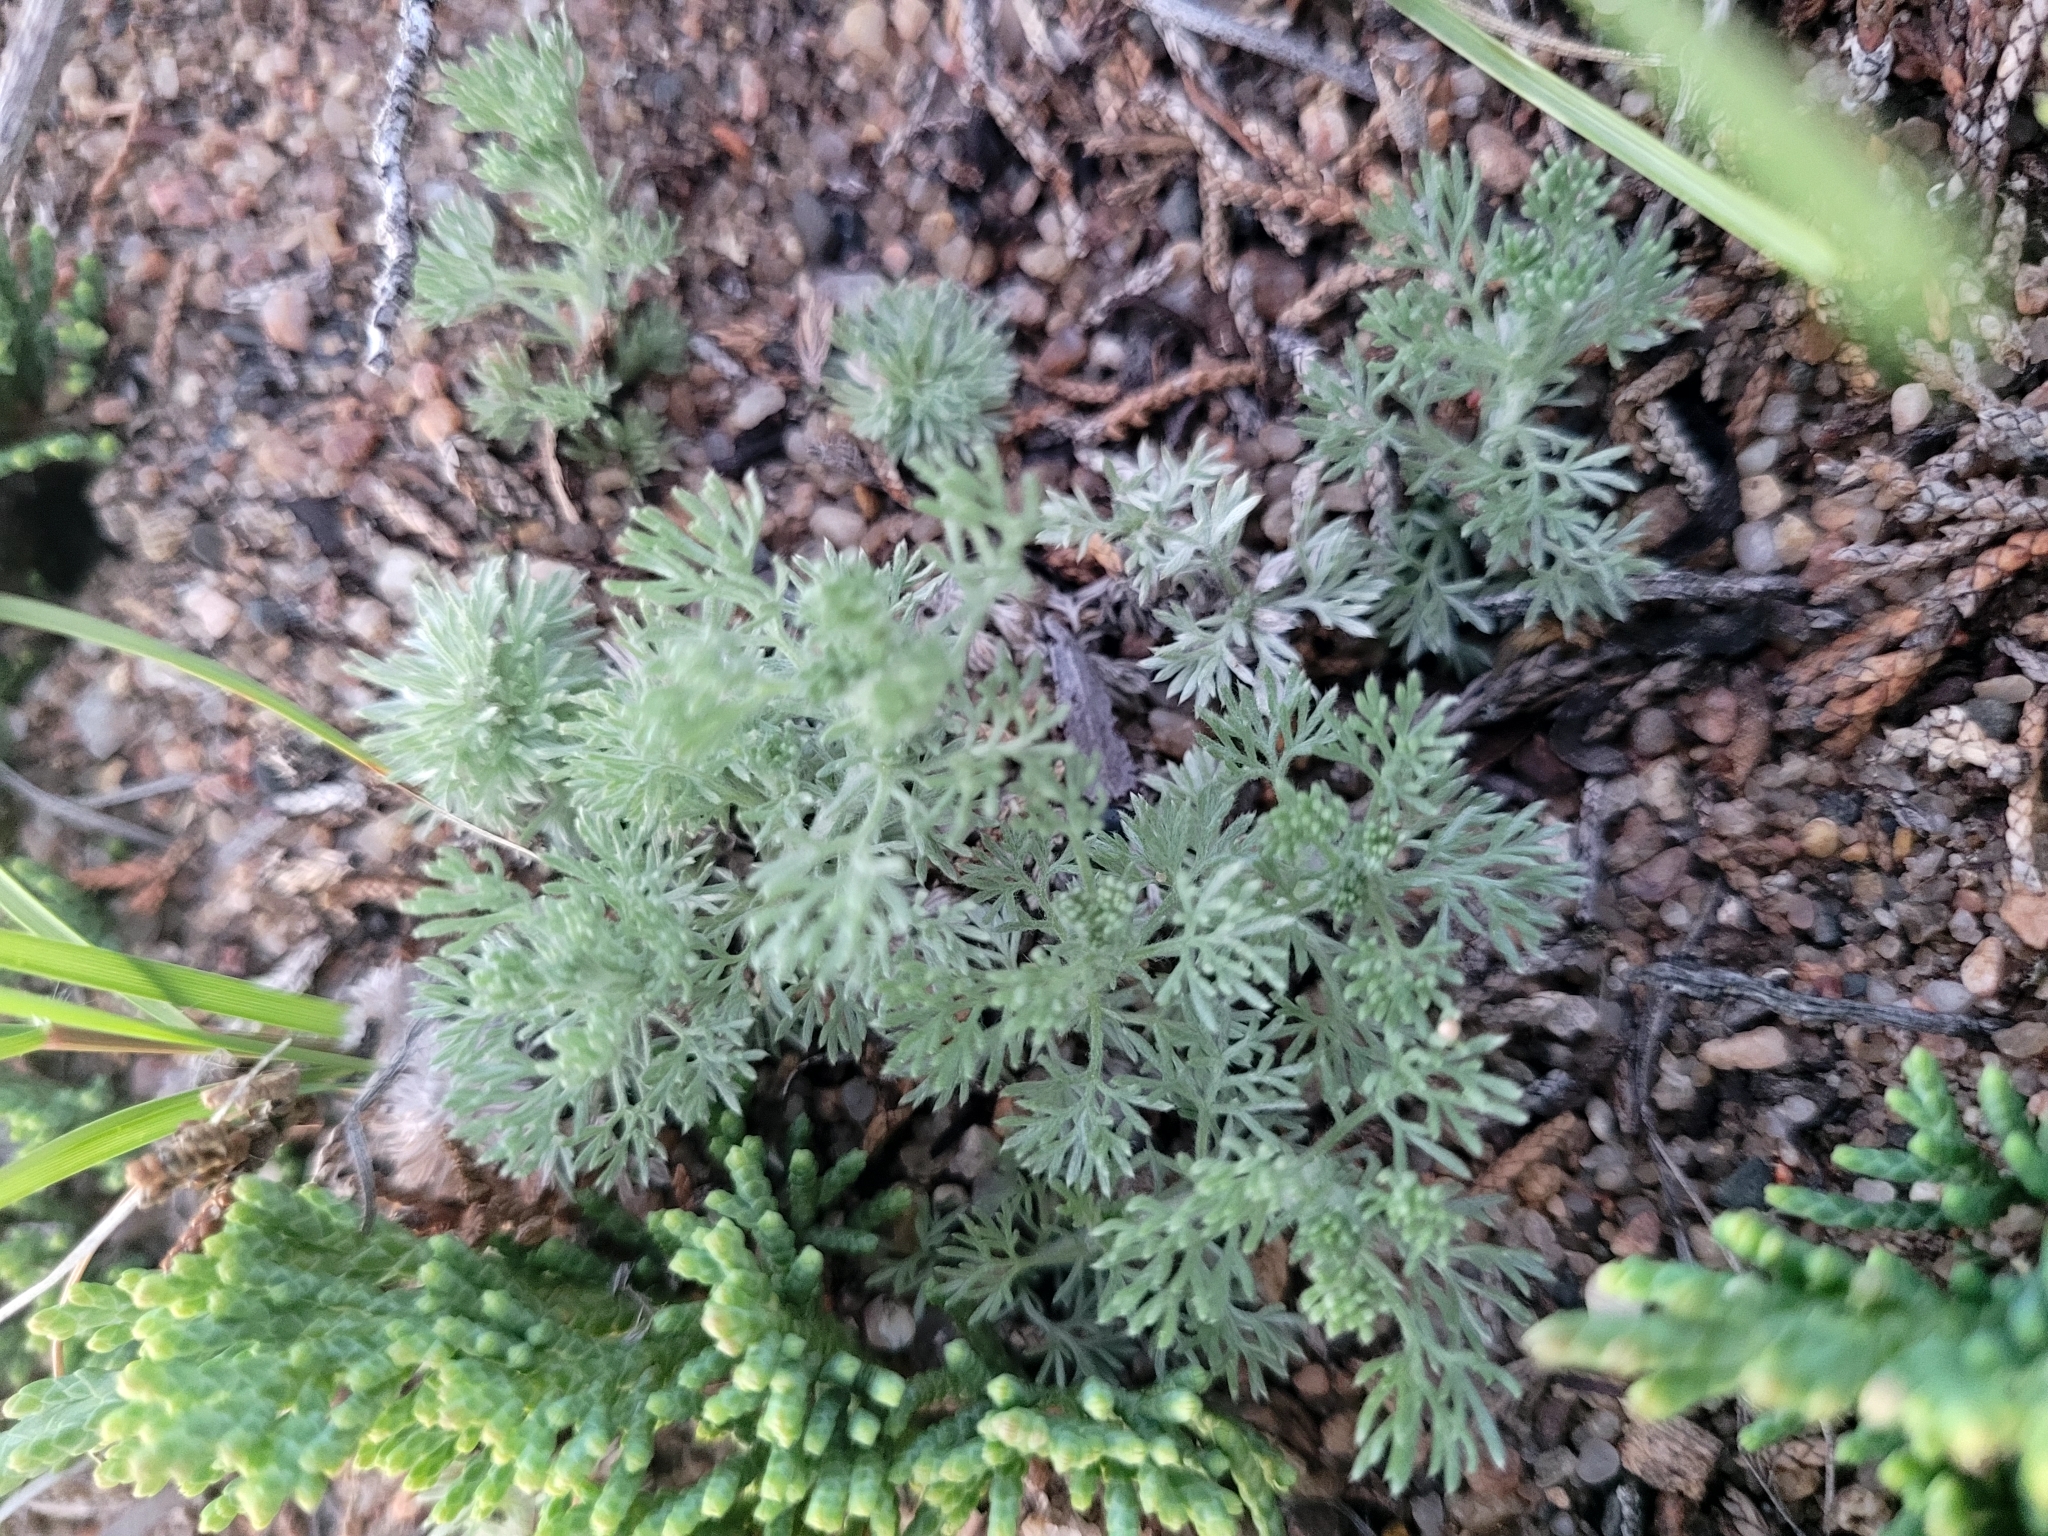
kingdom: Plantae
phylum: Tracheophyta
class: Magnoliopsida
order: Asterales
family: Asteraceae
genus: Artemisia
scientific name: Artemisia frigida
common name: Prairie sagewort
